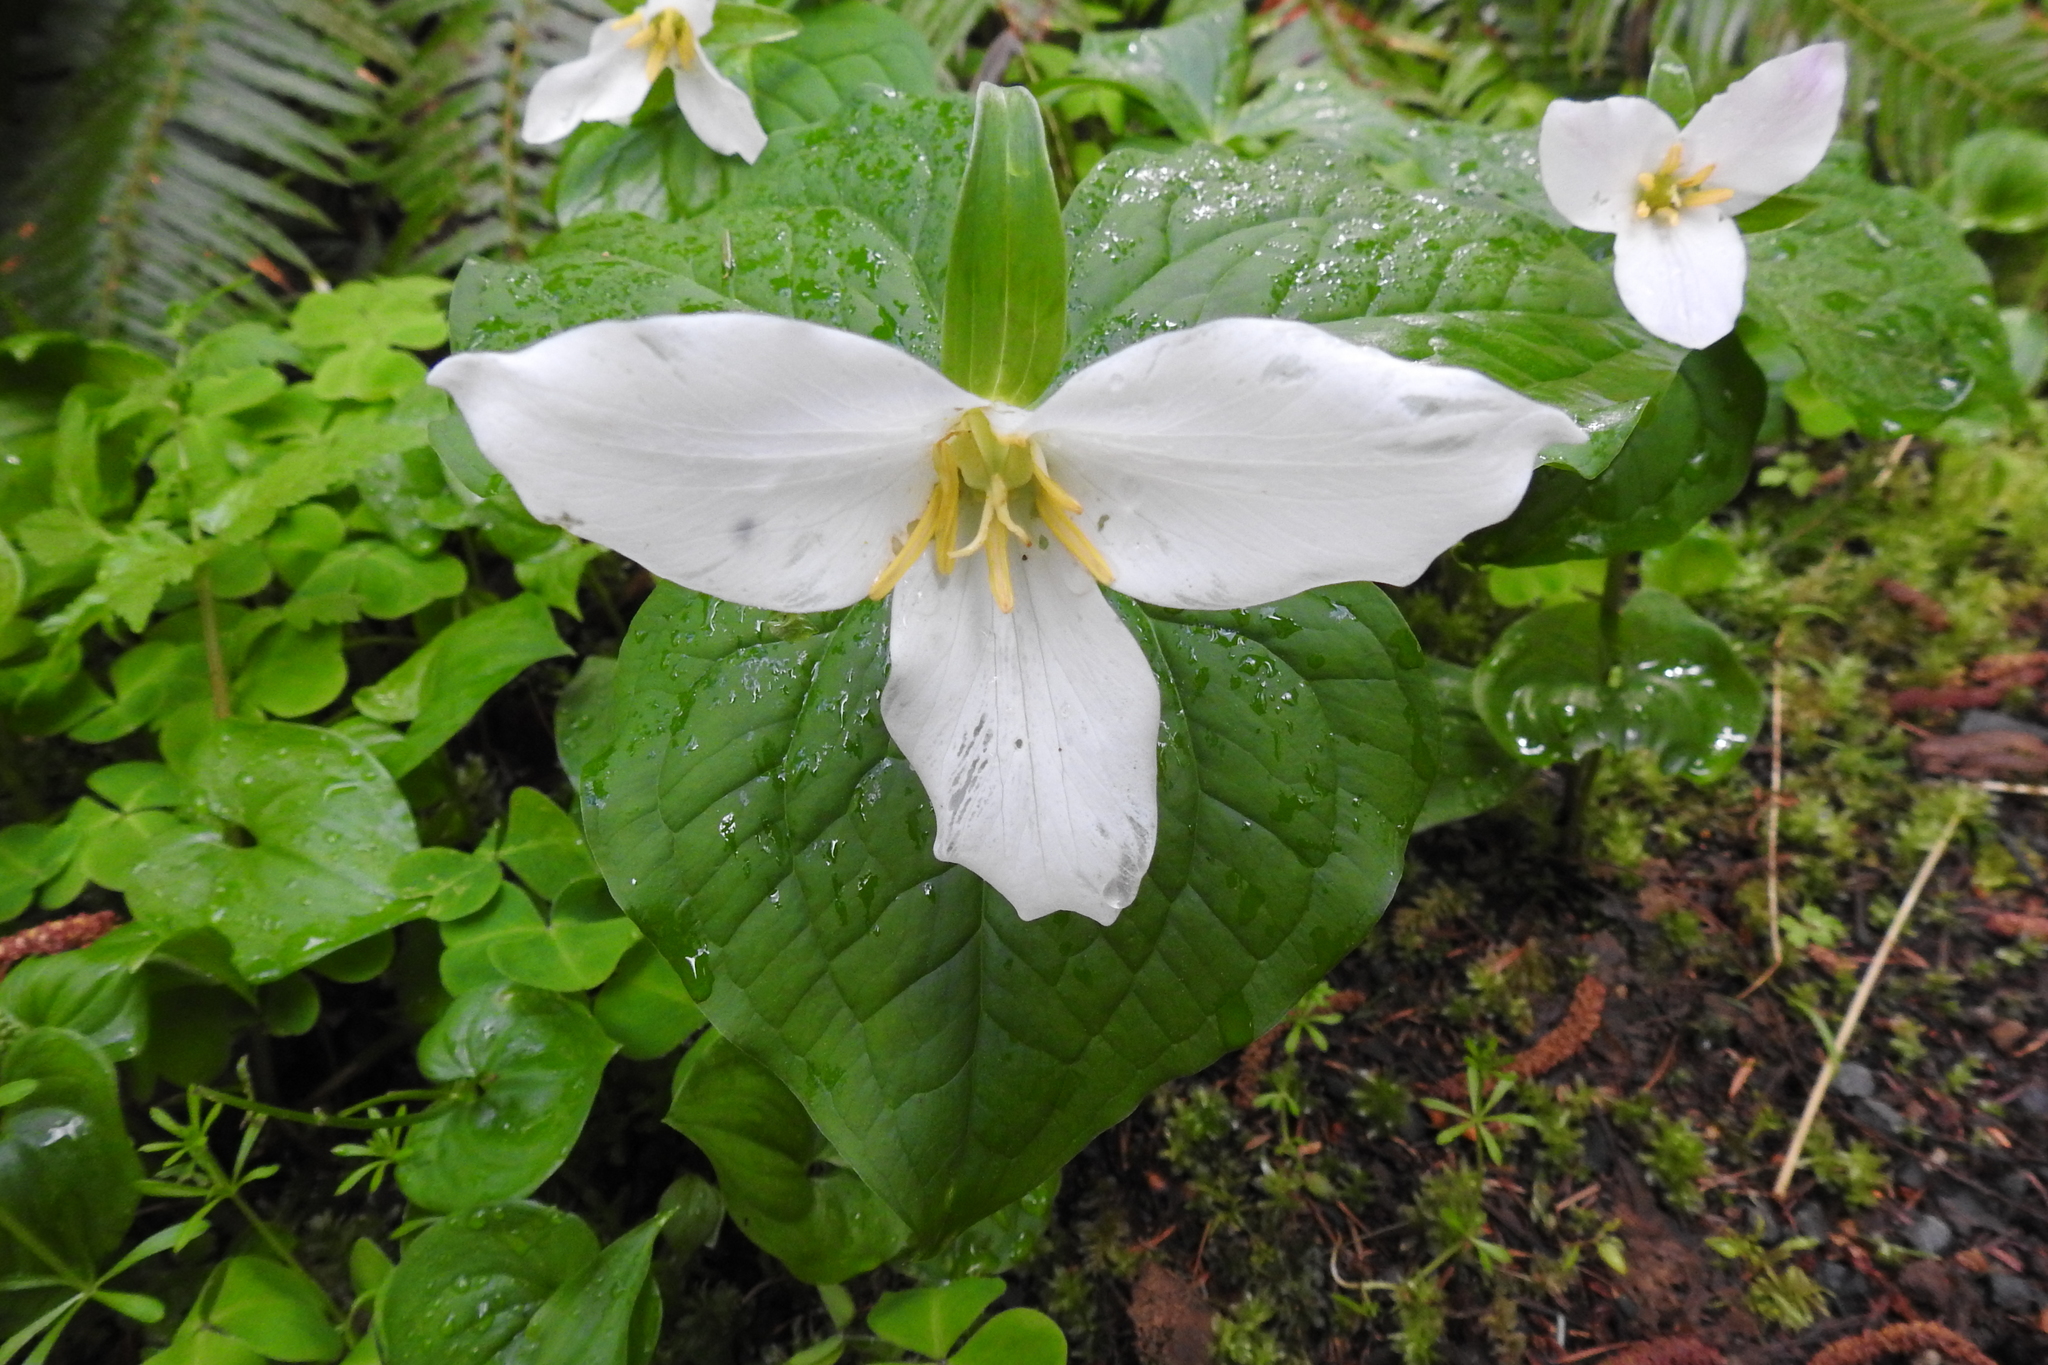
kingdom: Plantae
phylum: Tracheophyta
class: Liliopsida
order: Liliales
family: Melanthiaceae
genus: Trillium
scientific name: Trillium ovatum
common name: Pacific trillium
